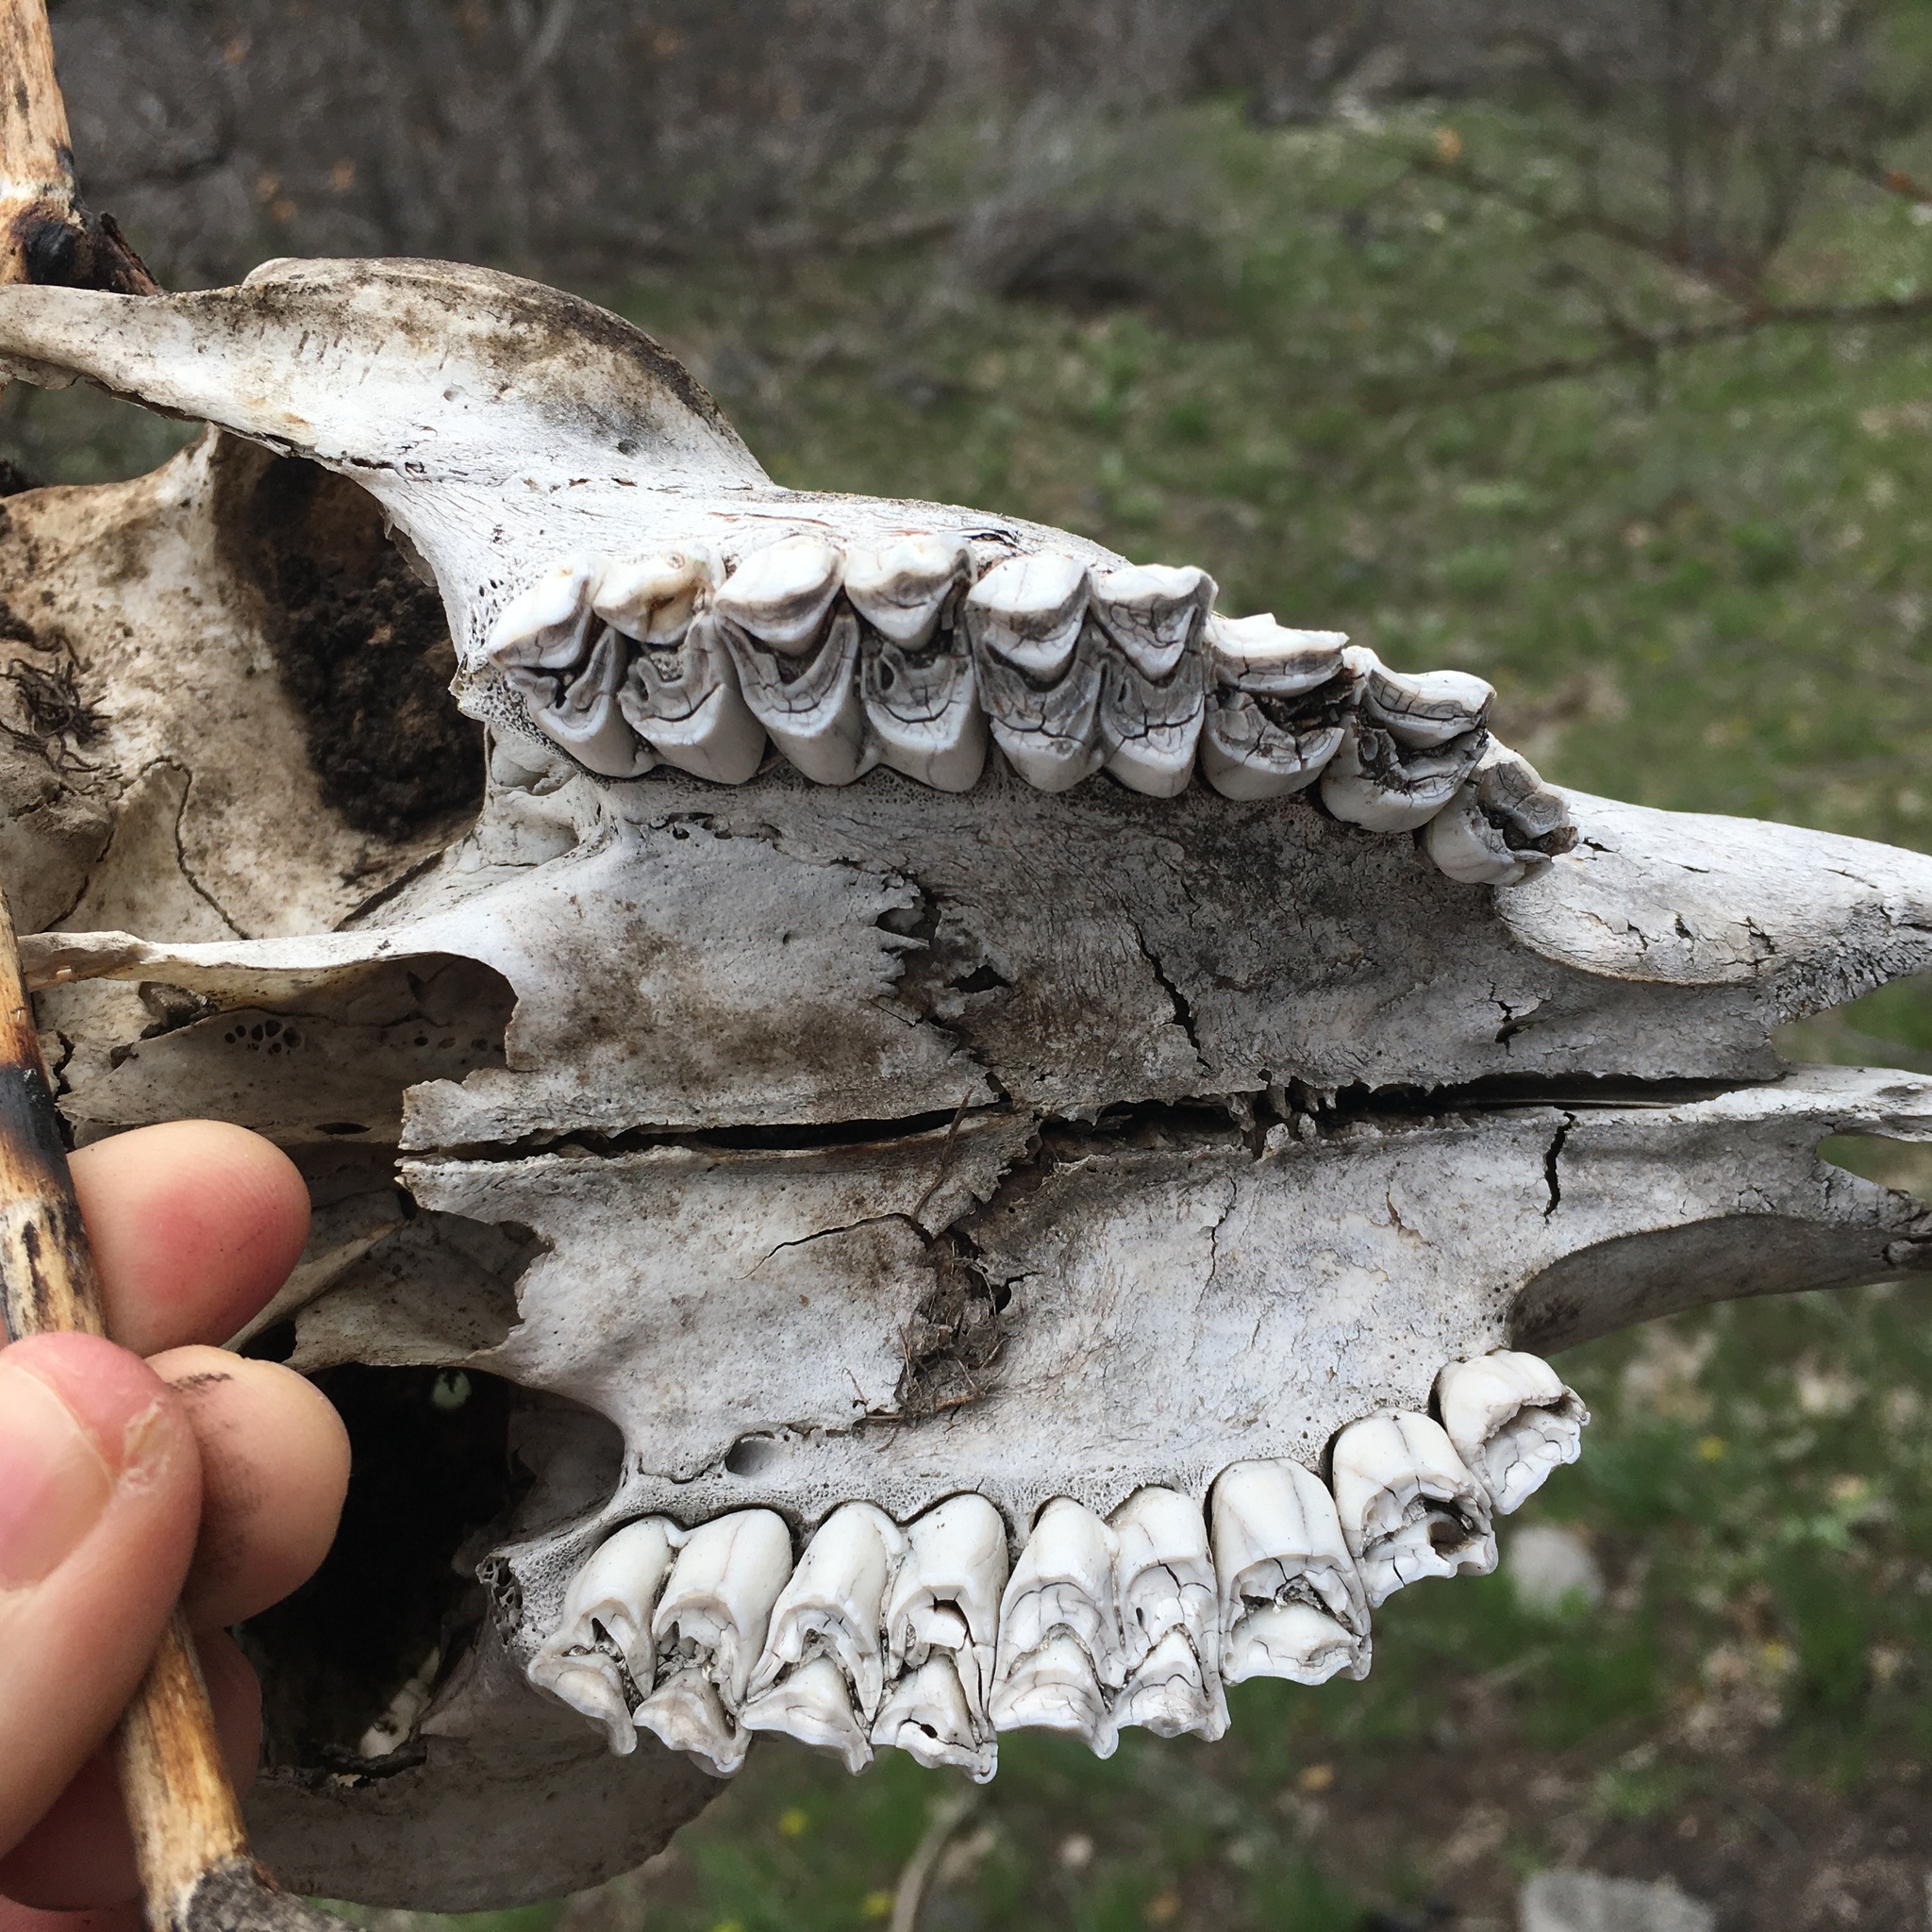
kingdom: Animalia
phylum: Chordata
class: Mammalia
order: Artiodactyla
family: Cervidae
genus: Odocoileus
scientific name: Odocoileus hemionus
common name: Mule deer
